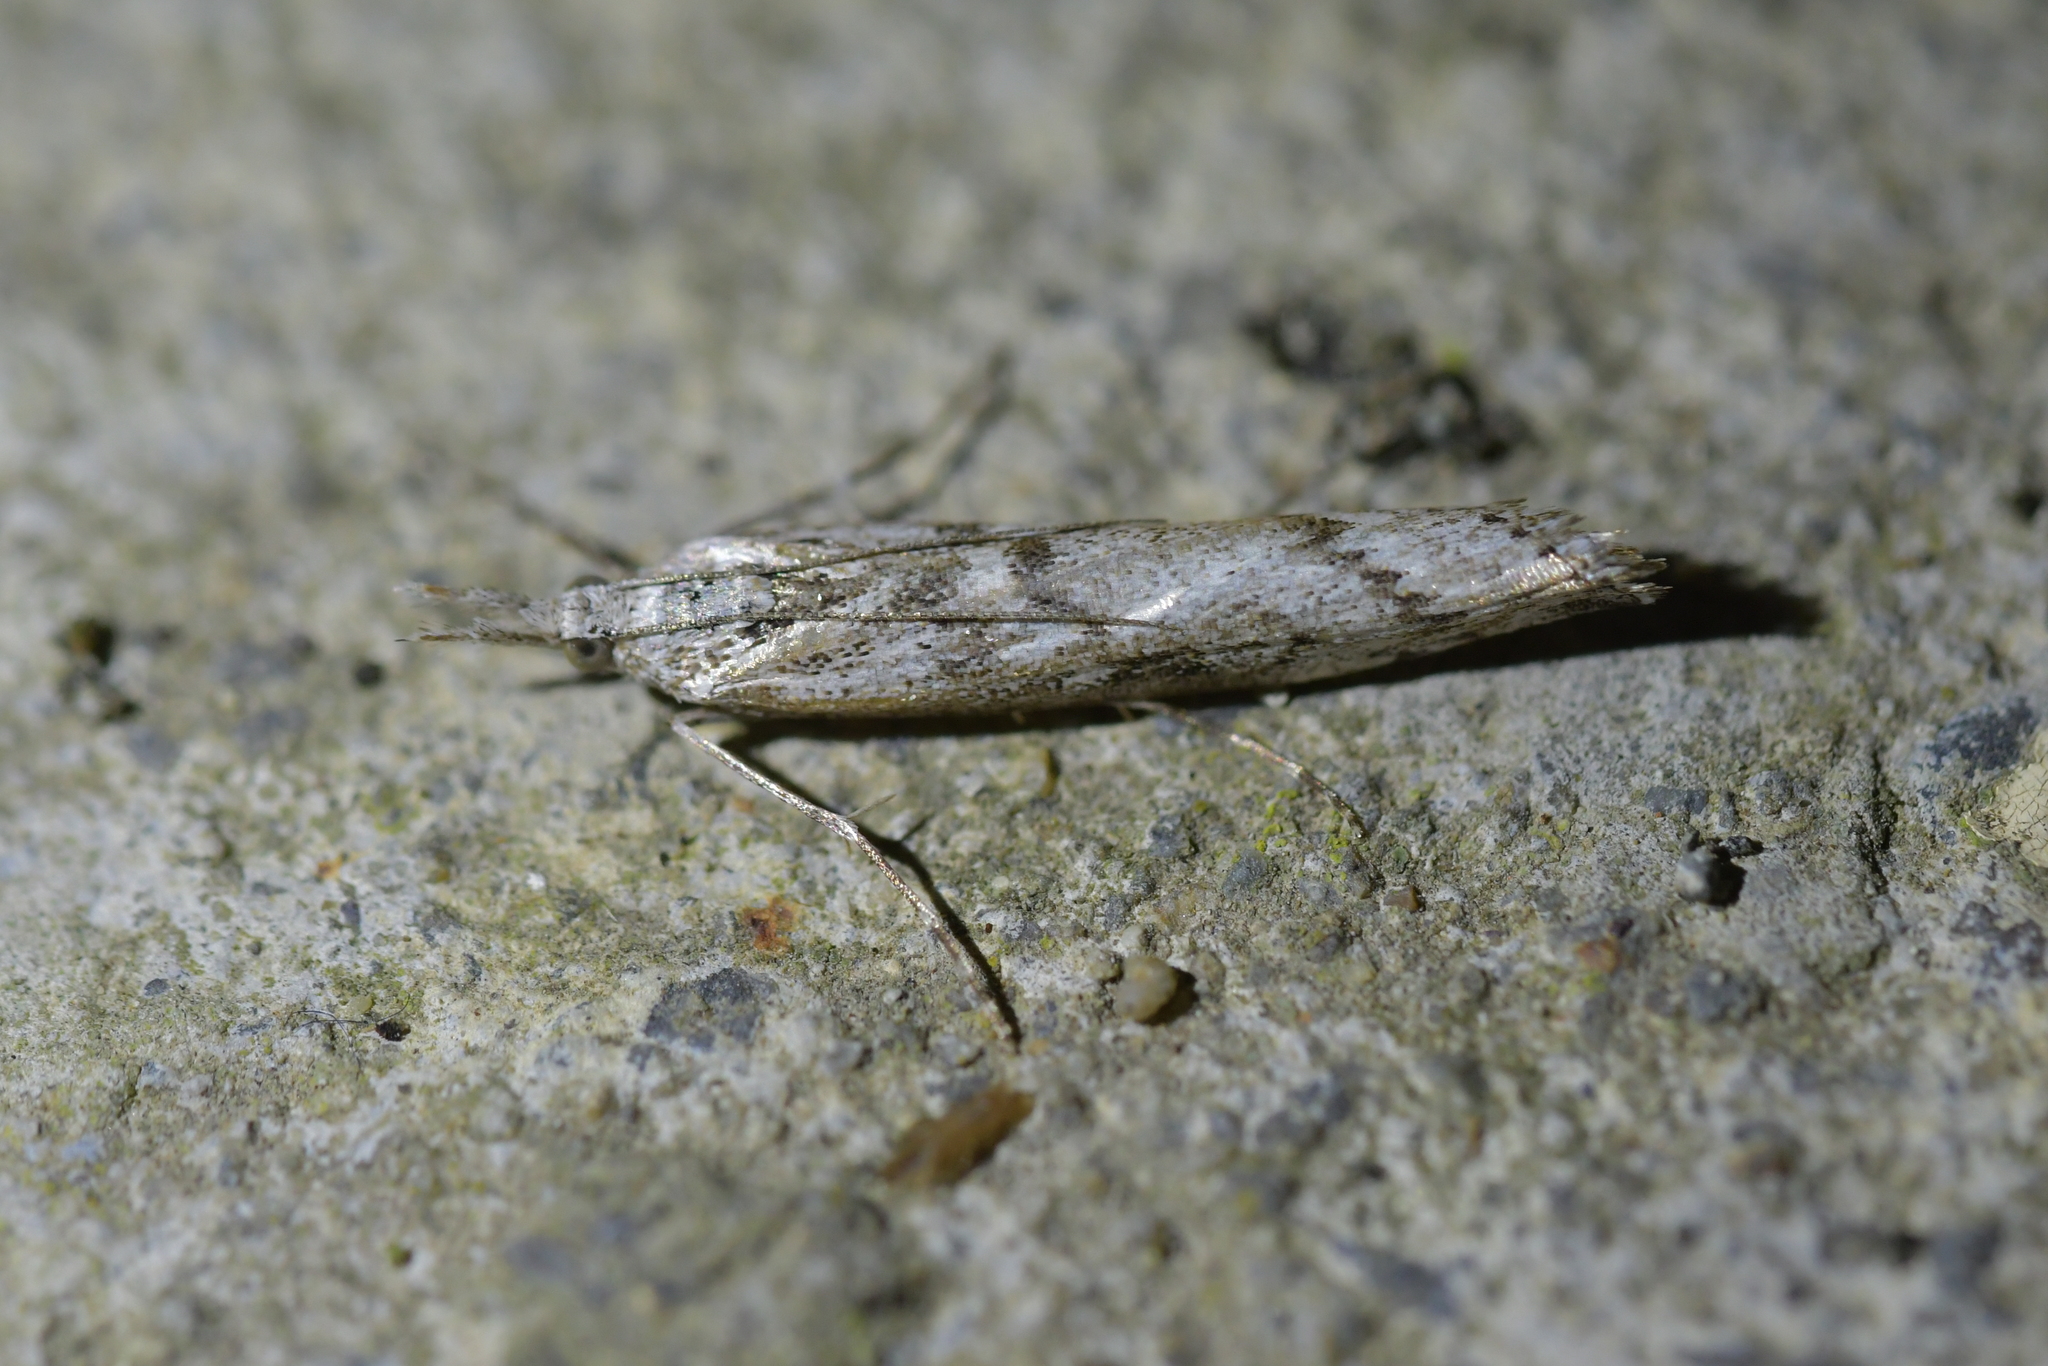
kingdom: Animalia
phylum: Arthropoda
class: Insecta
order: Lepidoptera
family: Crambidae
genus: Orocrambus
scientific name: Orocrambus cyclopicus
